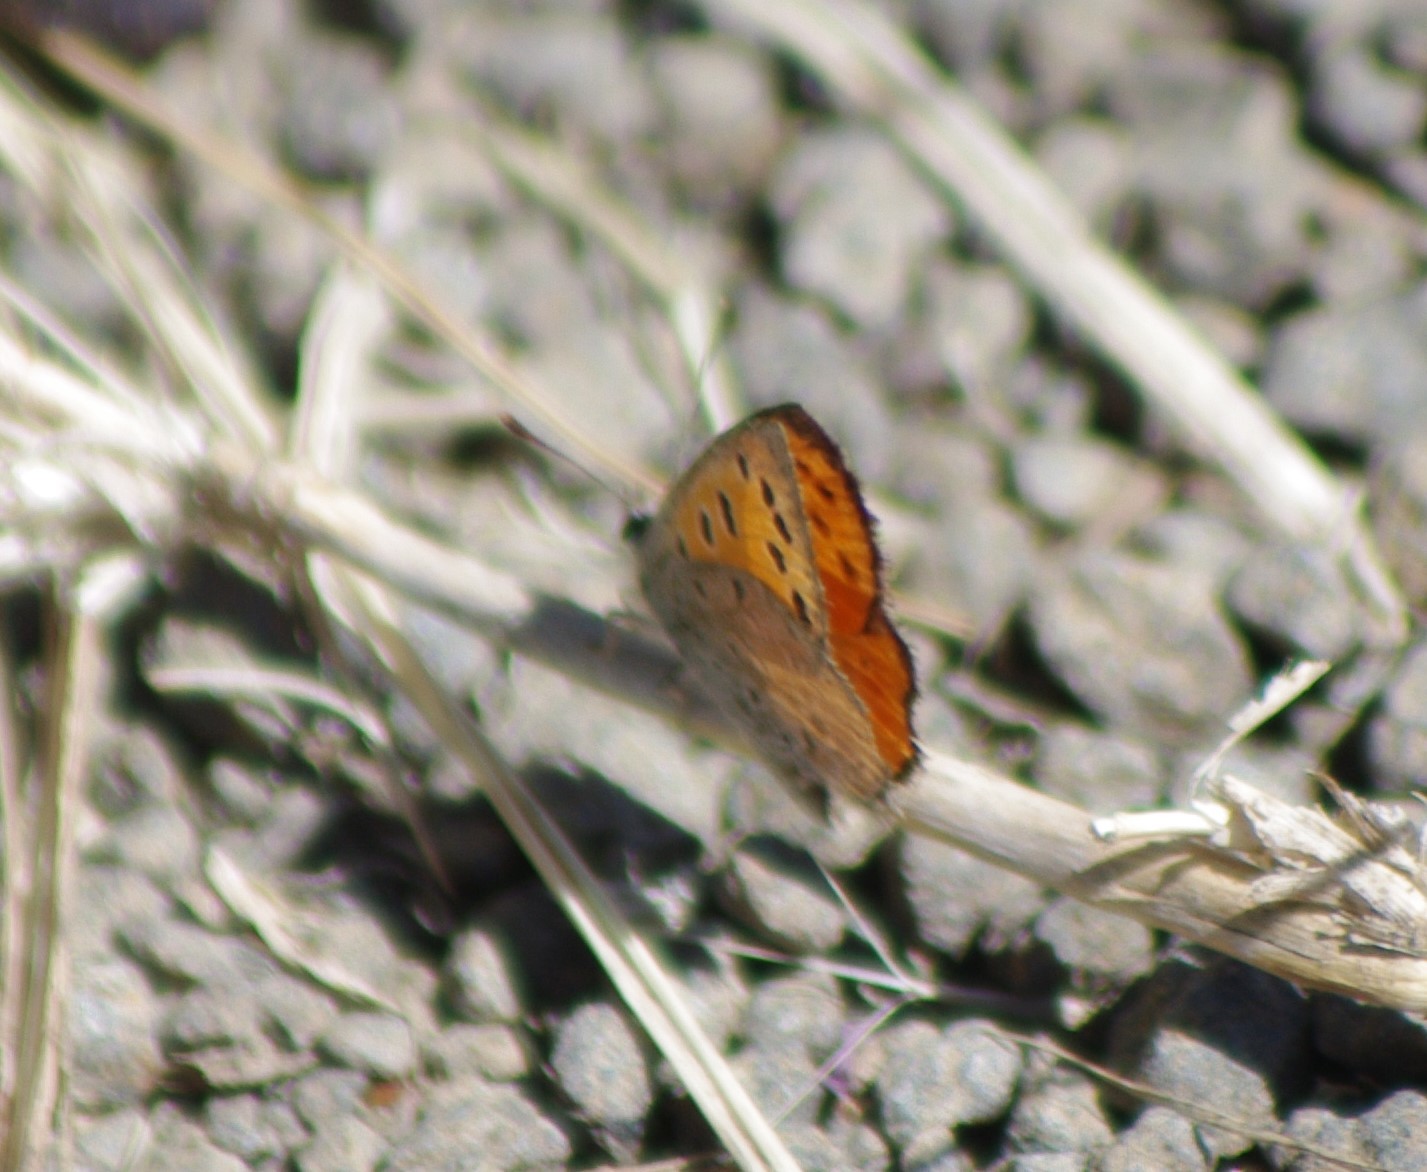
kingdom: Animalia
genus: Lafron
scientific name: Lafron
